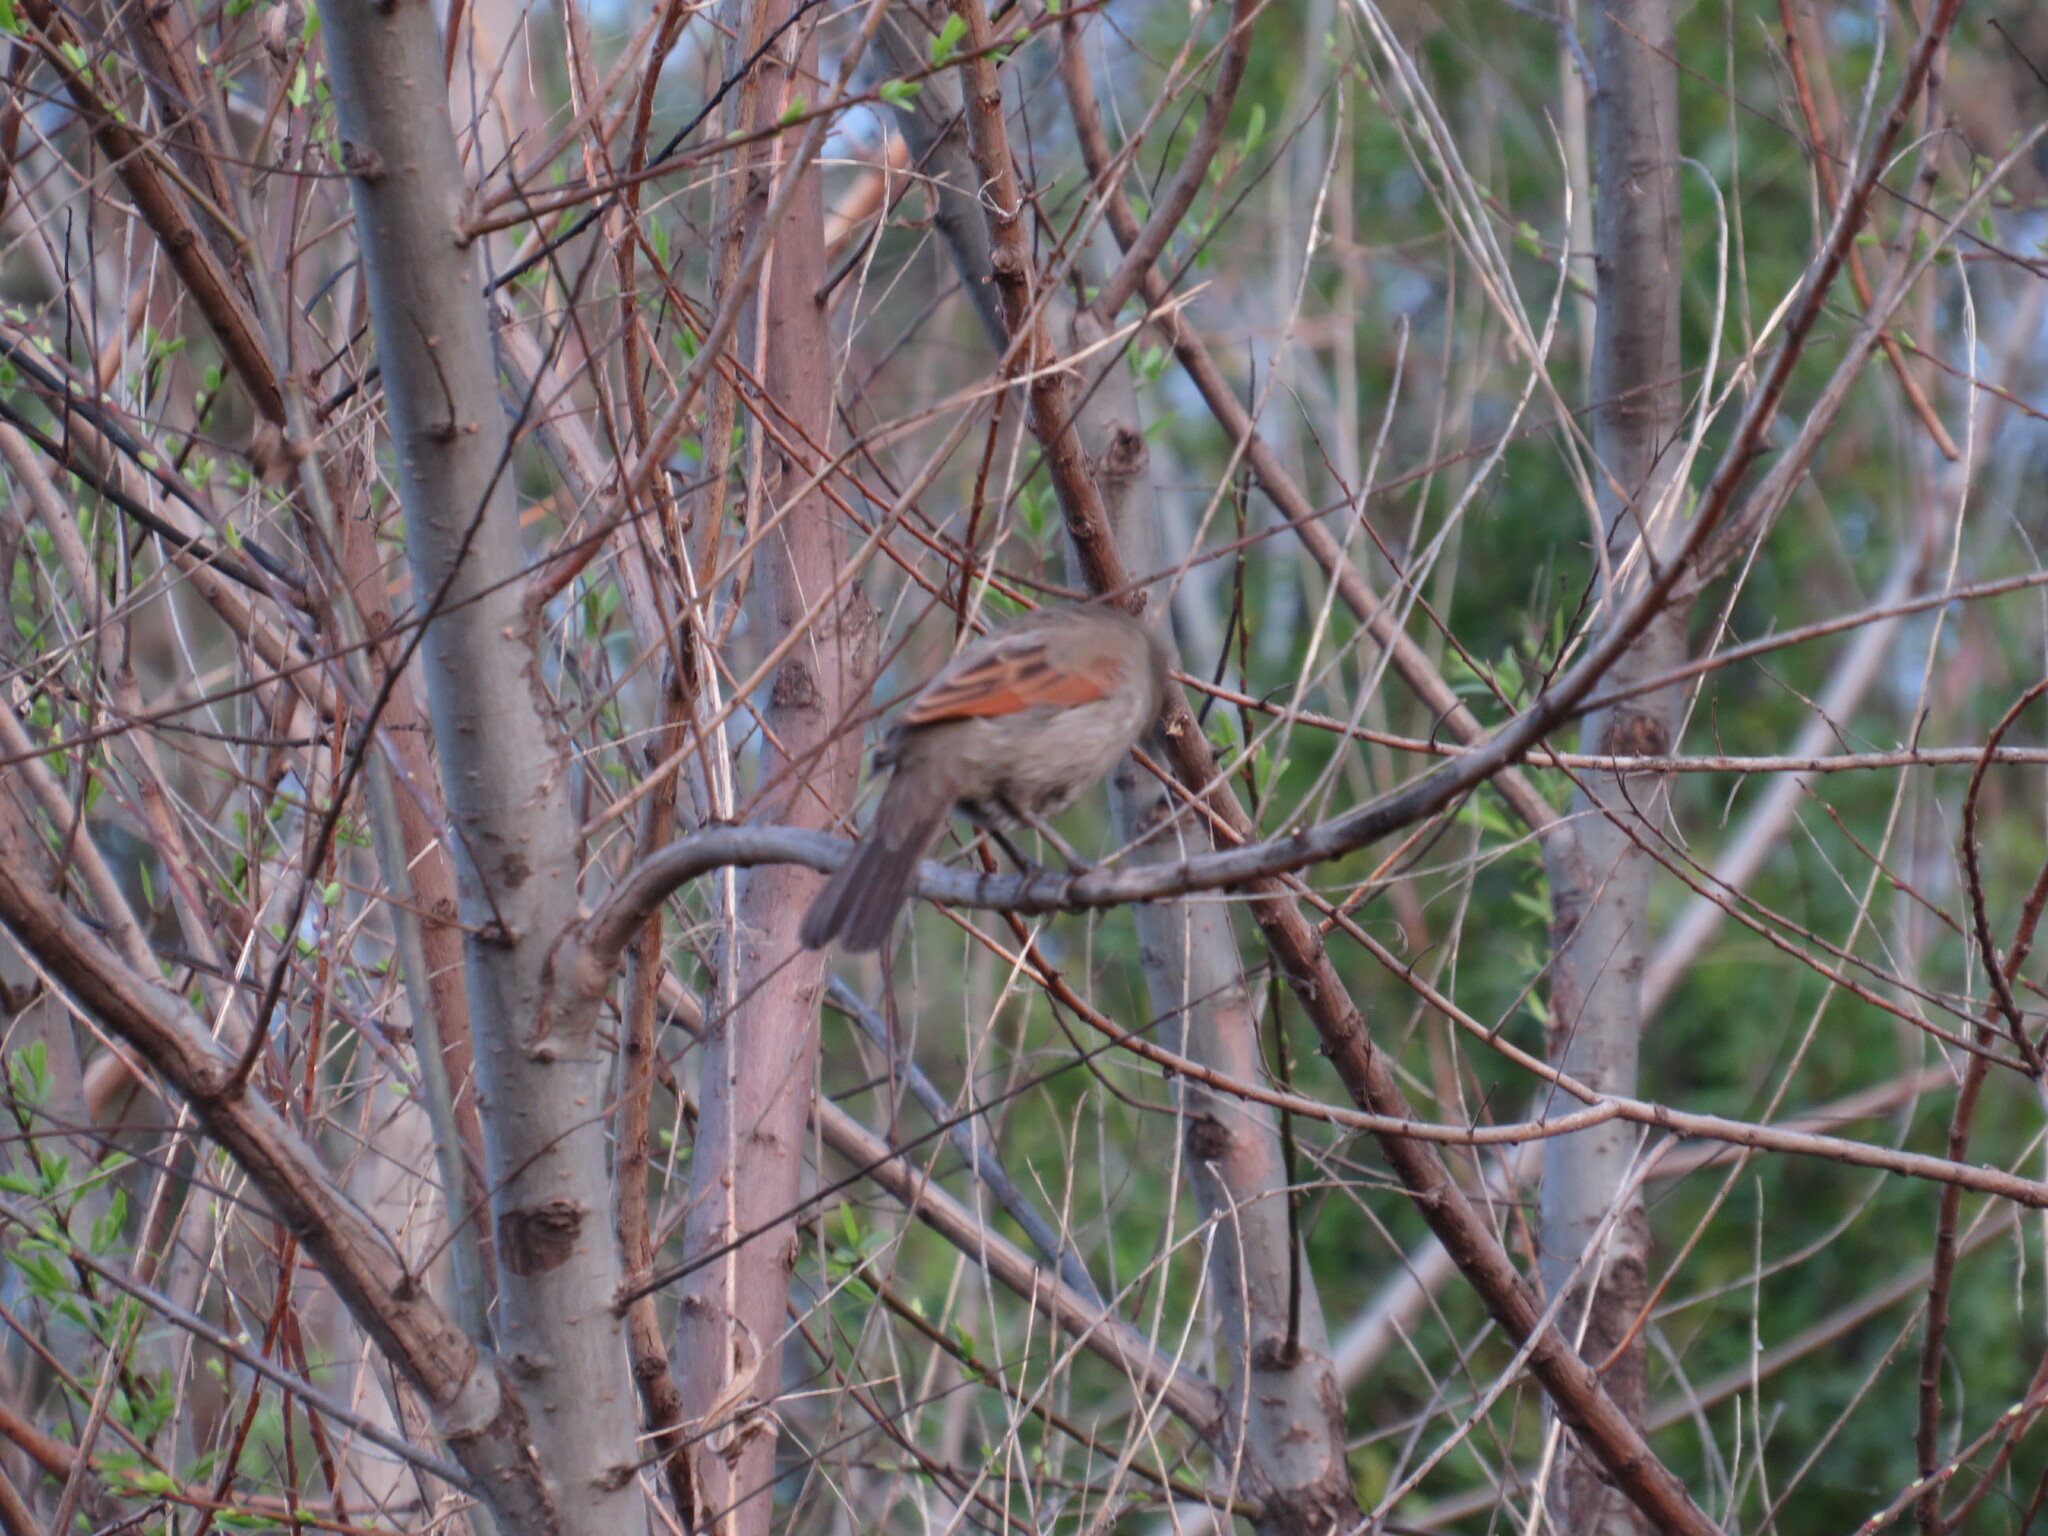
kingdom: Animalia
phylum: Chordata
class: Aves
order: Passeriformes
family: Icteridae
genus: Agelaioides
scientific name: Agelaioides badius
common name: Baywing
